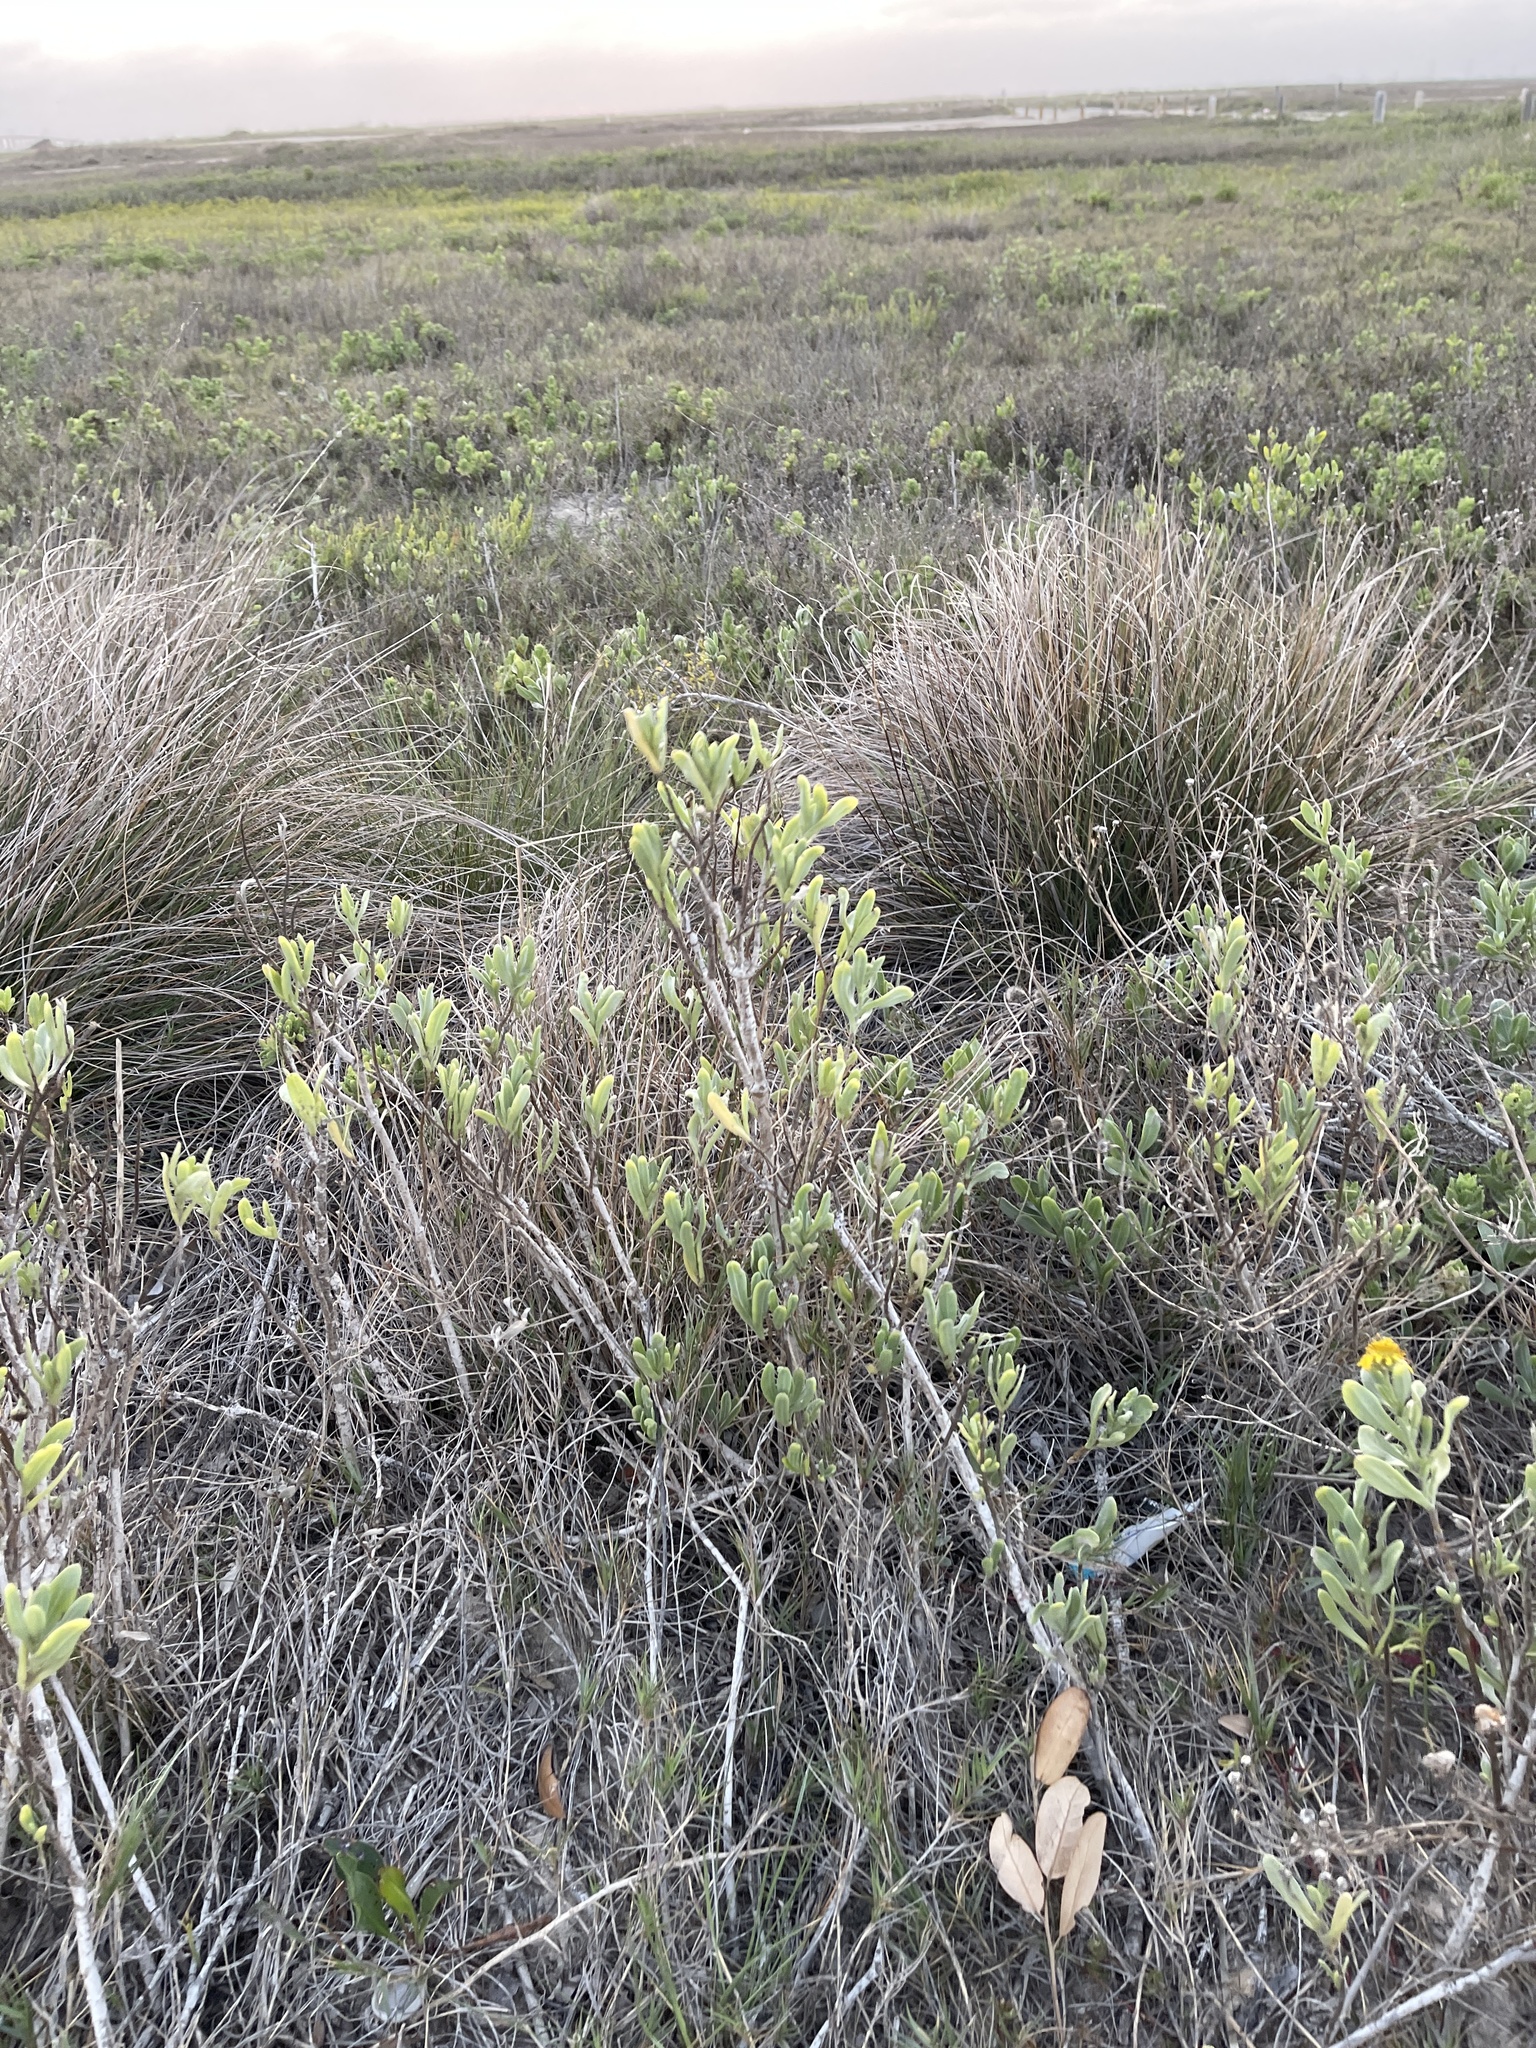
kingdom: Plantae
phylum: Tracheophyta
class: Magnoliopsida
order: Asterales
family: Asteraceae
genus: Borrichia
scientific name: Borrichia frutescens
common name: Sea oxeye
